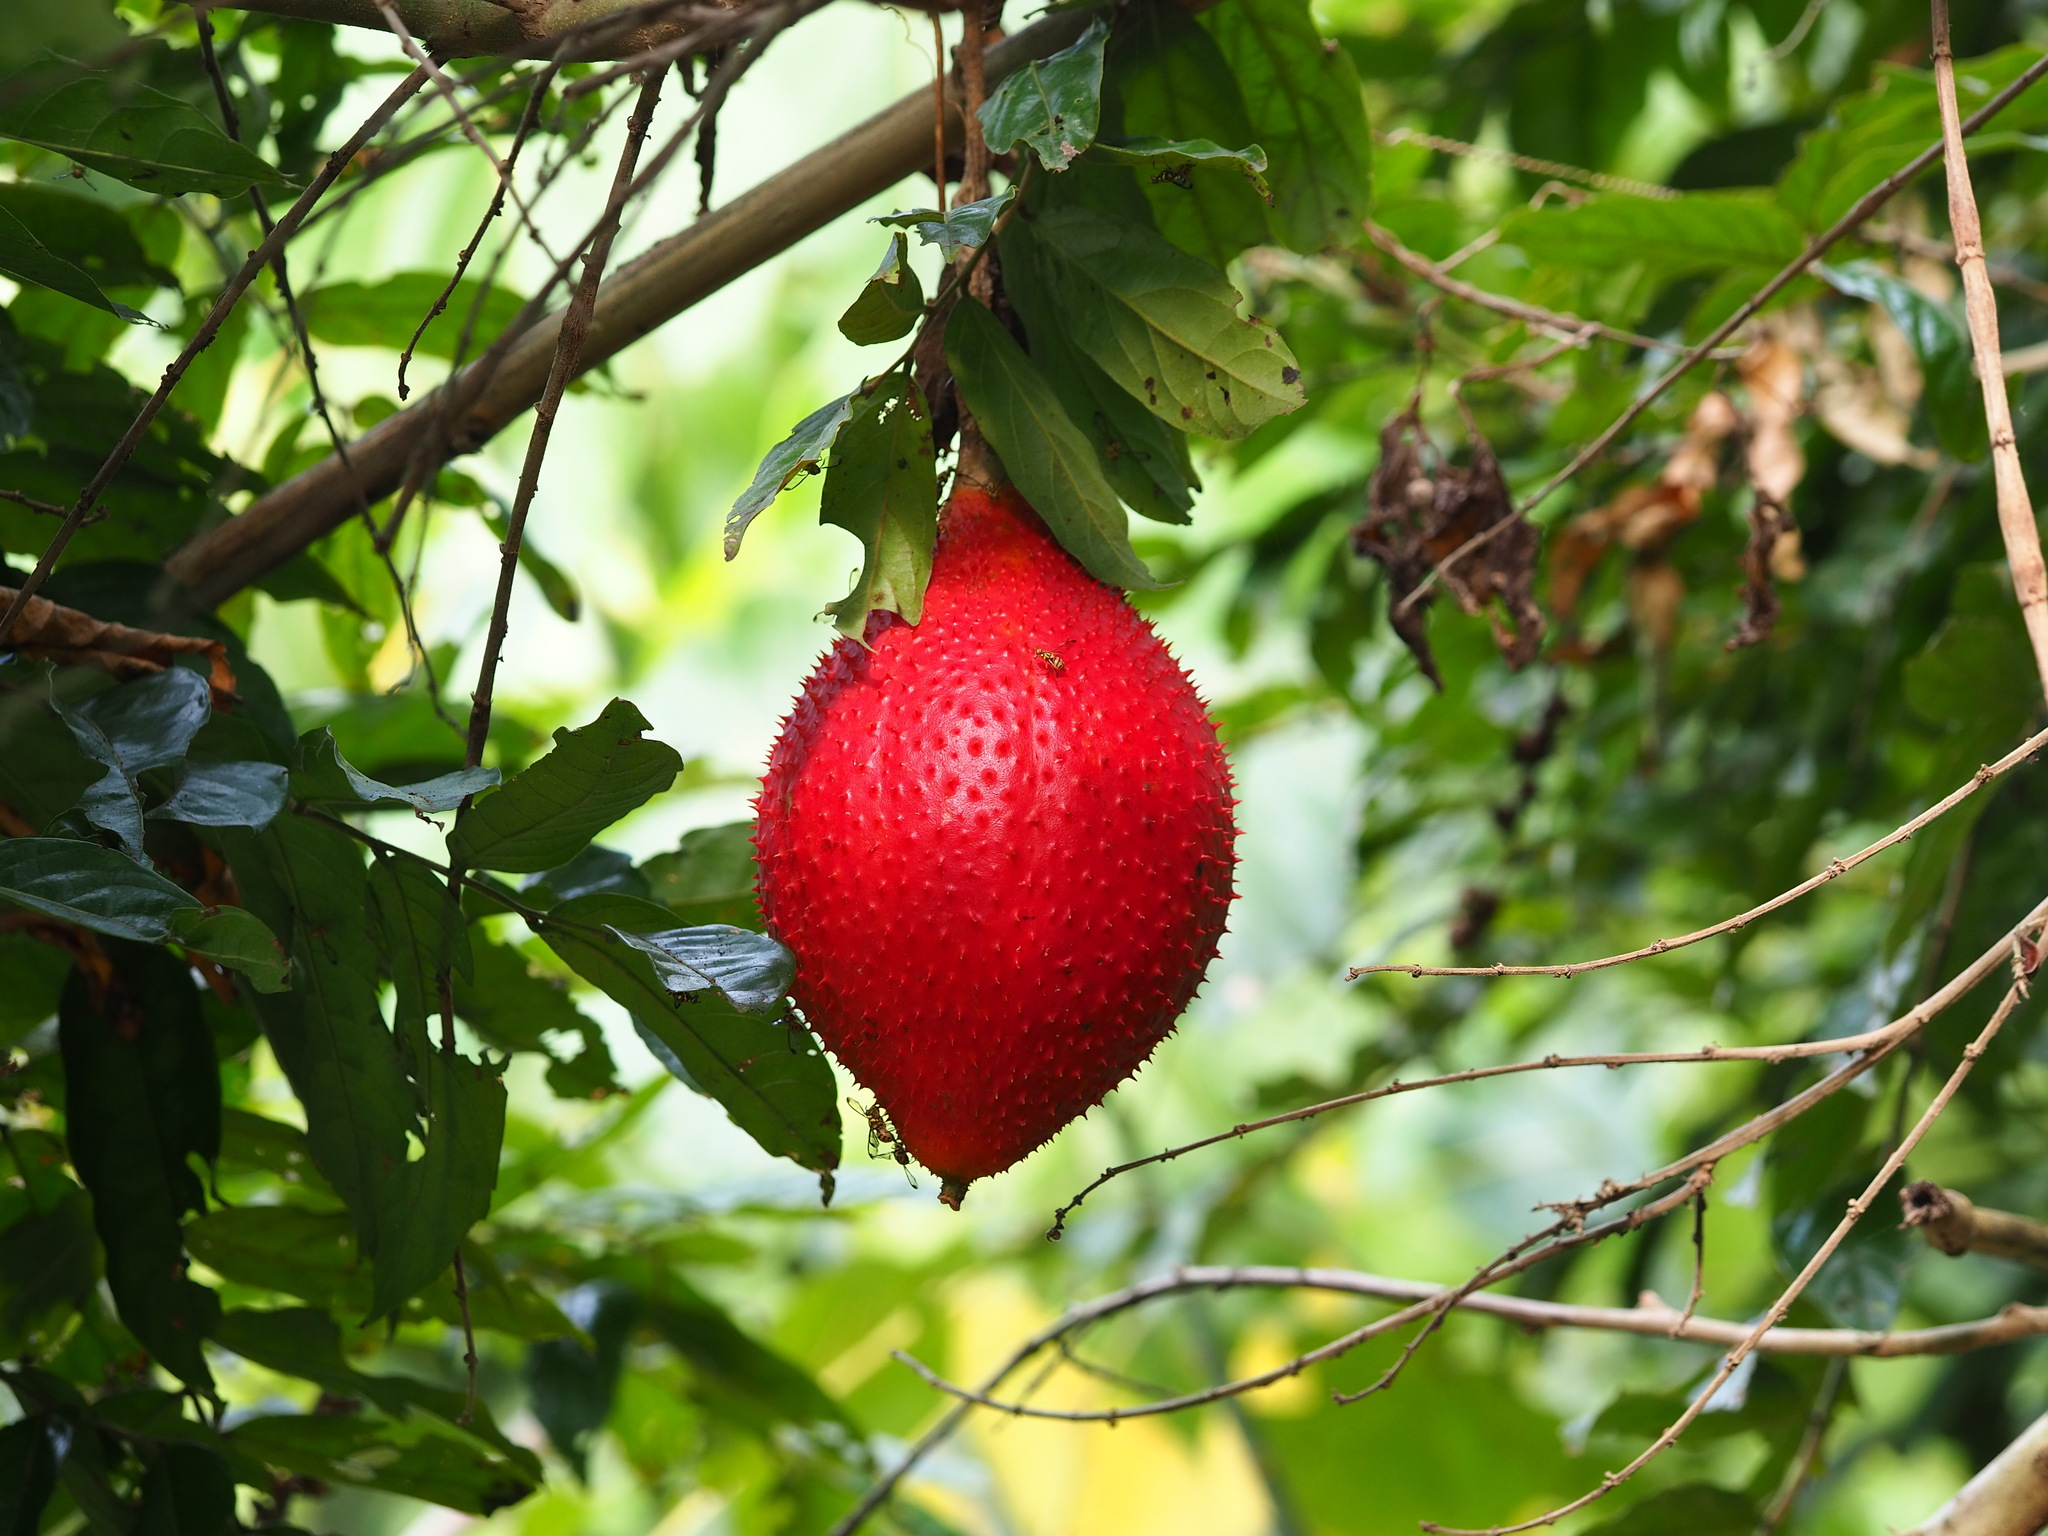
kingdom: Plantae
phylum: Tracheophyta
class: Magnoliopsida
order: Cucurbitales
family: Cucurbitaceae
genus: Momordica
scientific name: Momordica cochinchinensis
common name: Chinese bitter-cucumber
